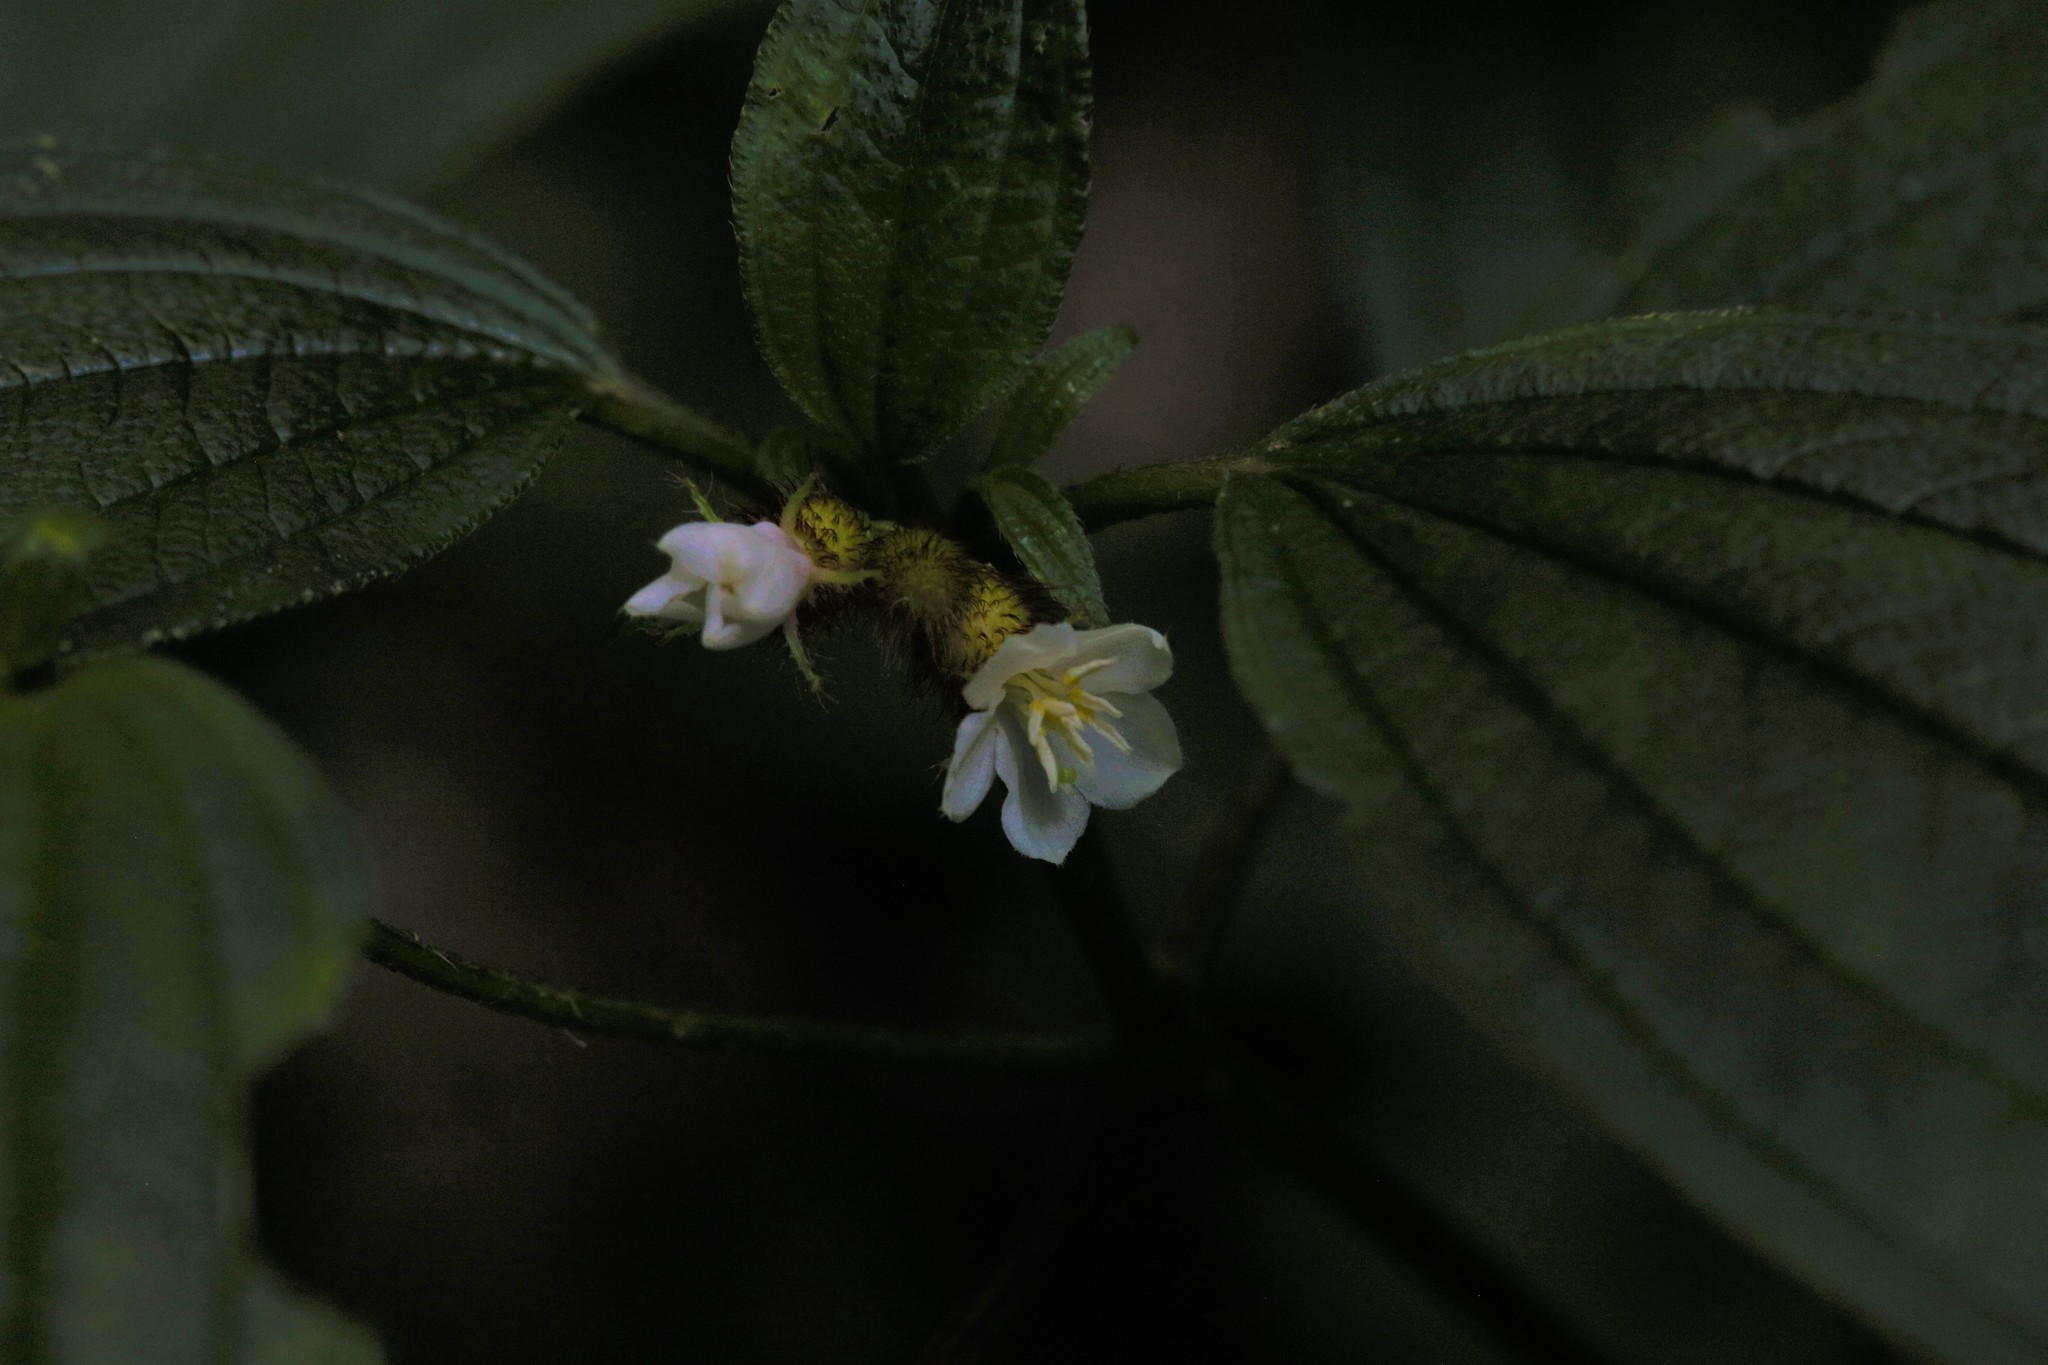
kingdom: Plantae
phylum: Tracheophyta
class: Magnoliopsida
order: Myrtales
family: Melastomataceae
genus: Melastoma
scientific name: Melastoma cyanoides
